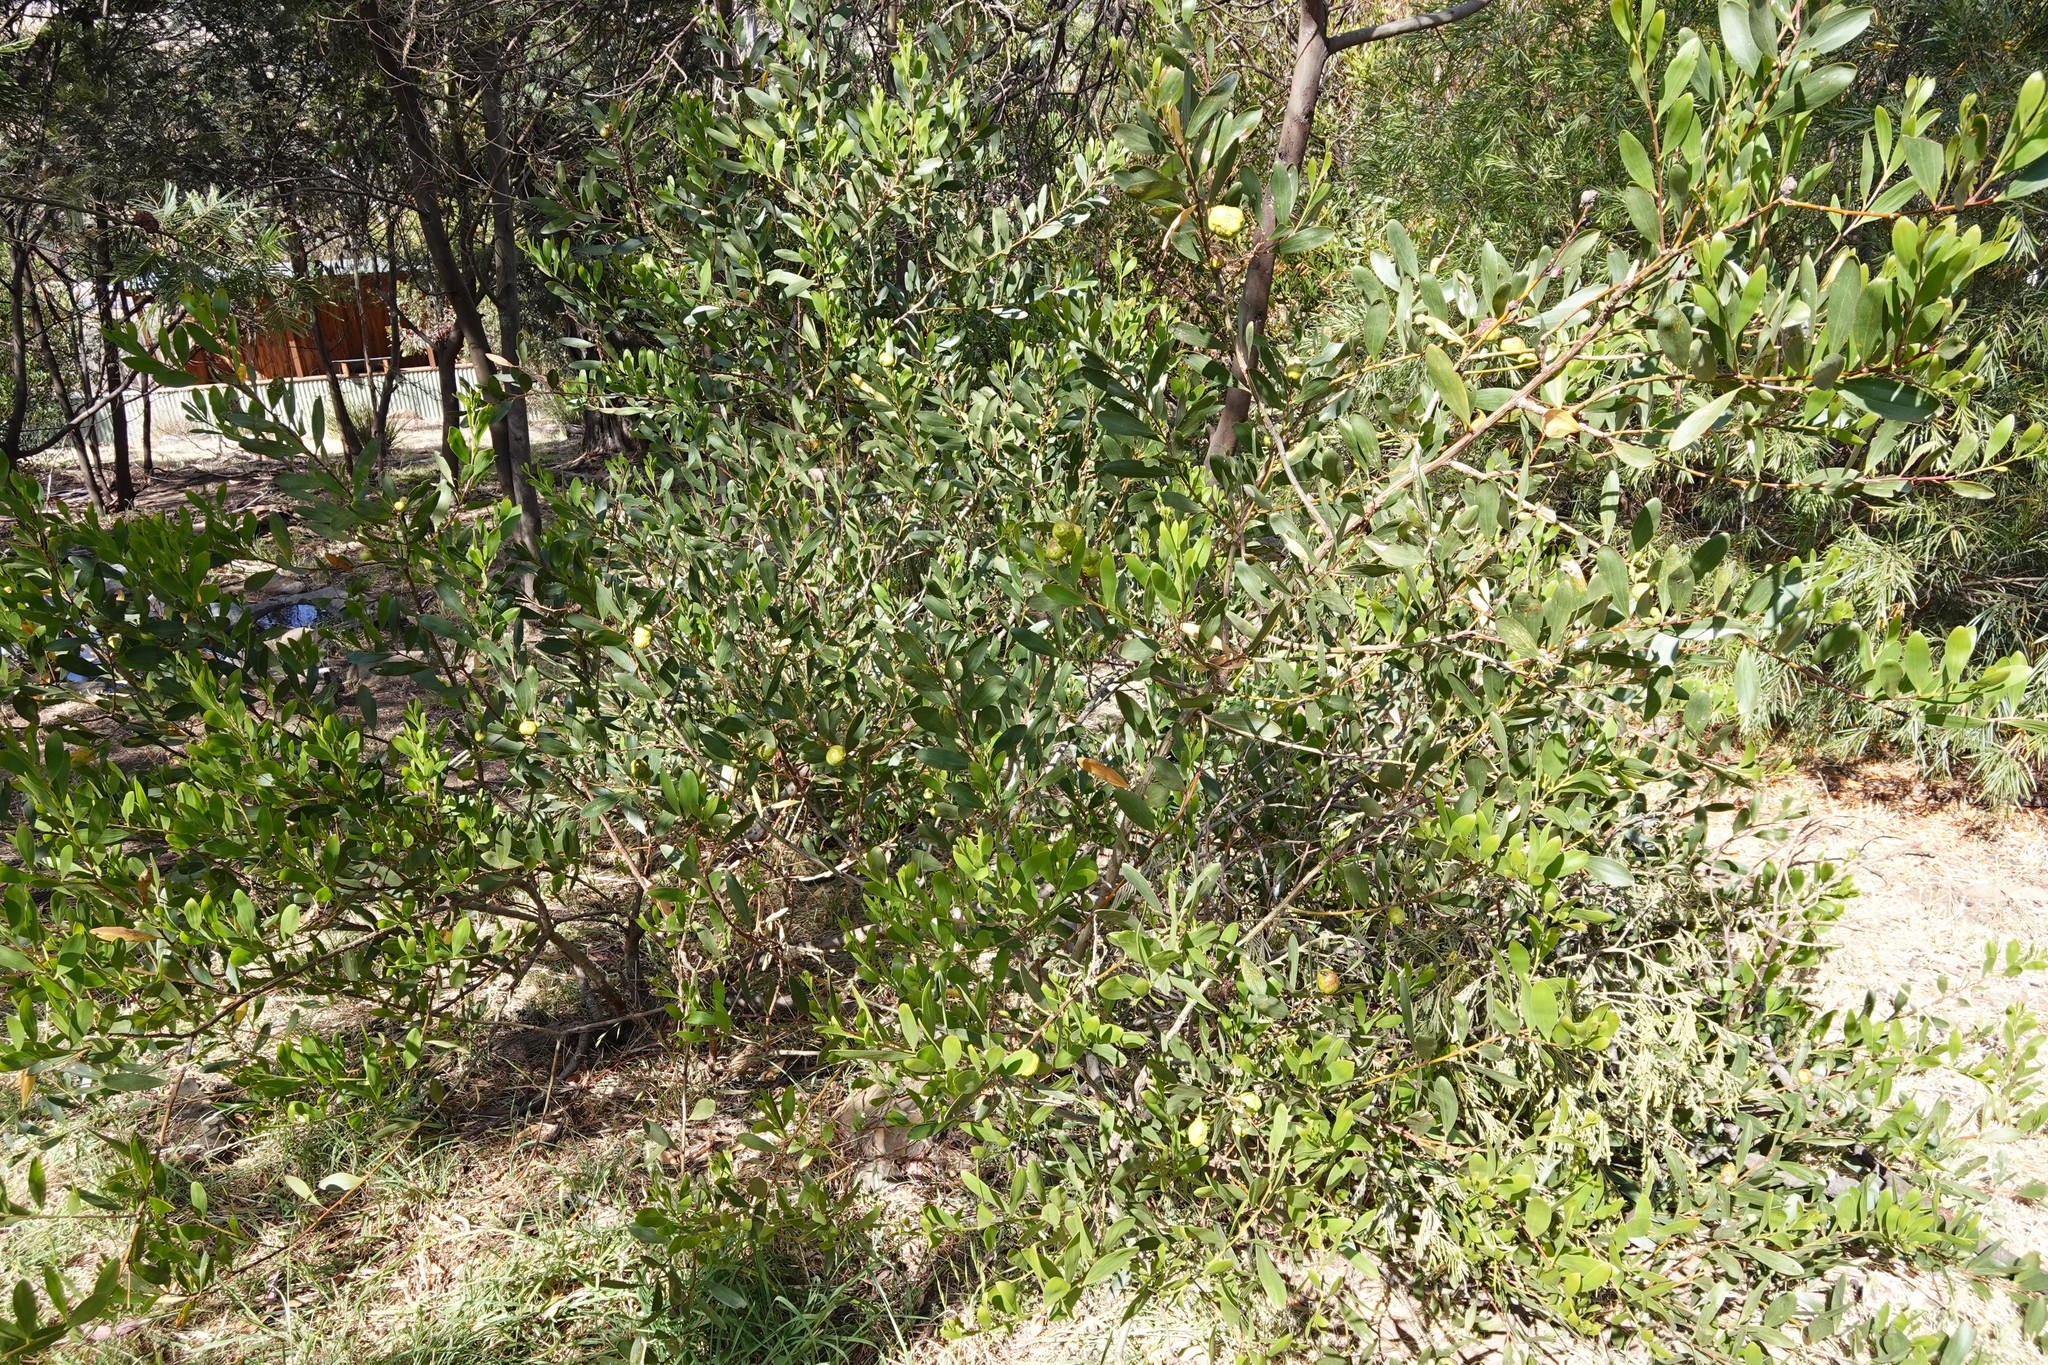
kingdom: Plantae
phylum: Tracheophyta
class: Magnoliopsida
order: Fabales
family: Fabaceae
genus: Acacia
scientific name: Acacia longifolia
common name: Sydney golden wattle
